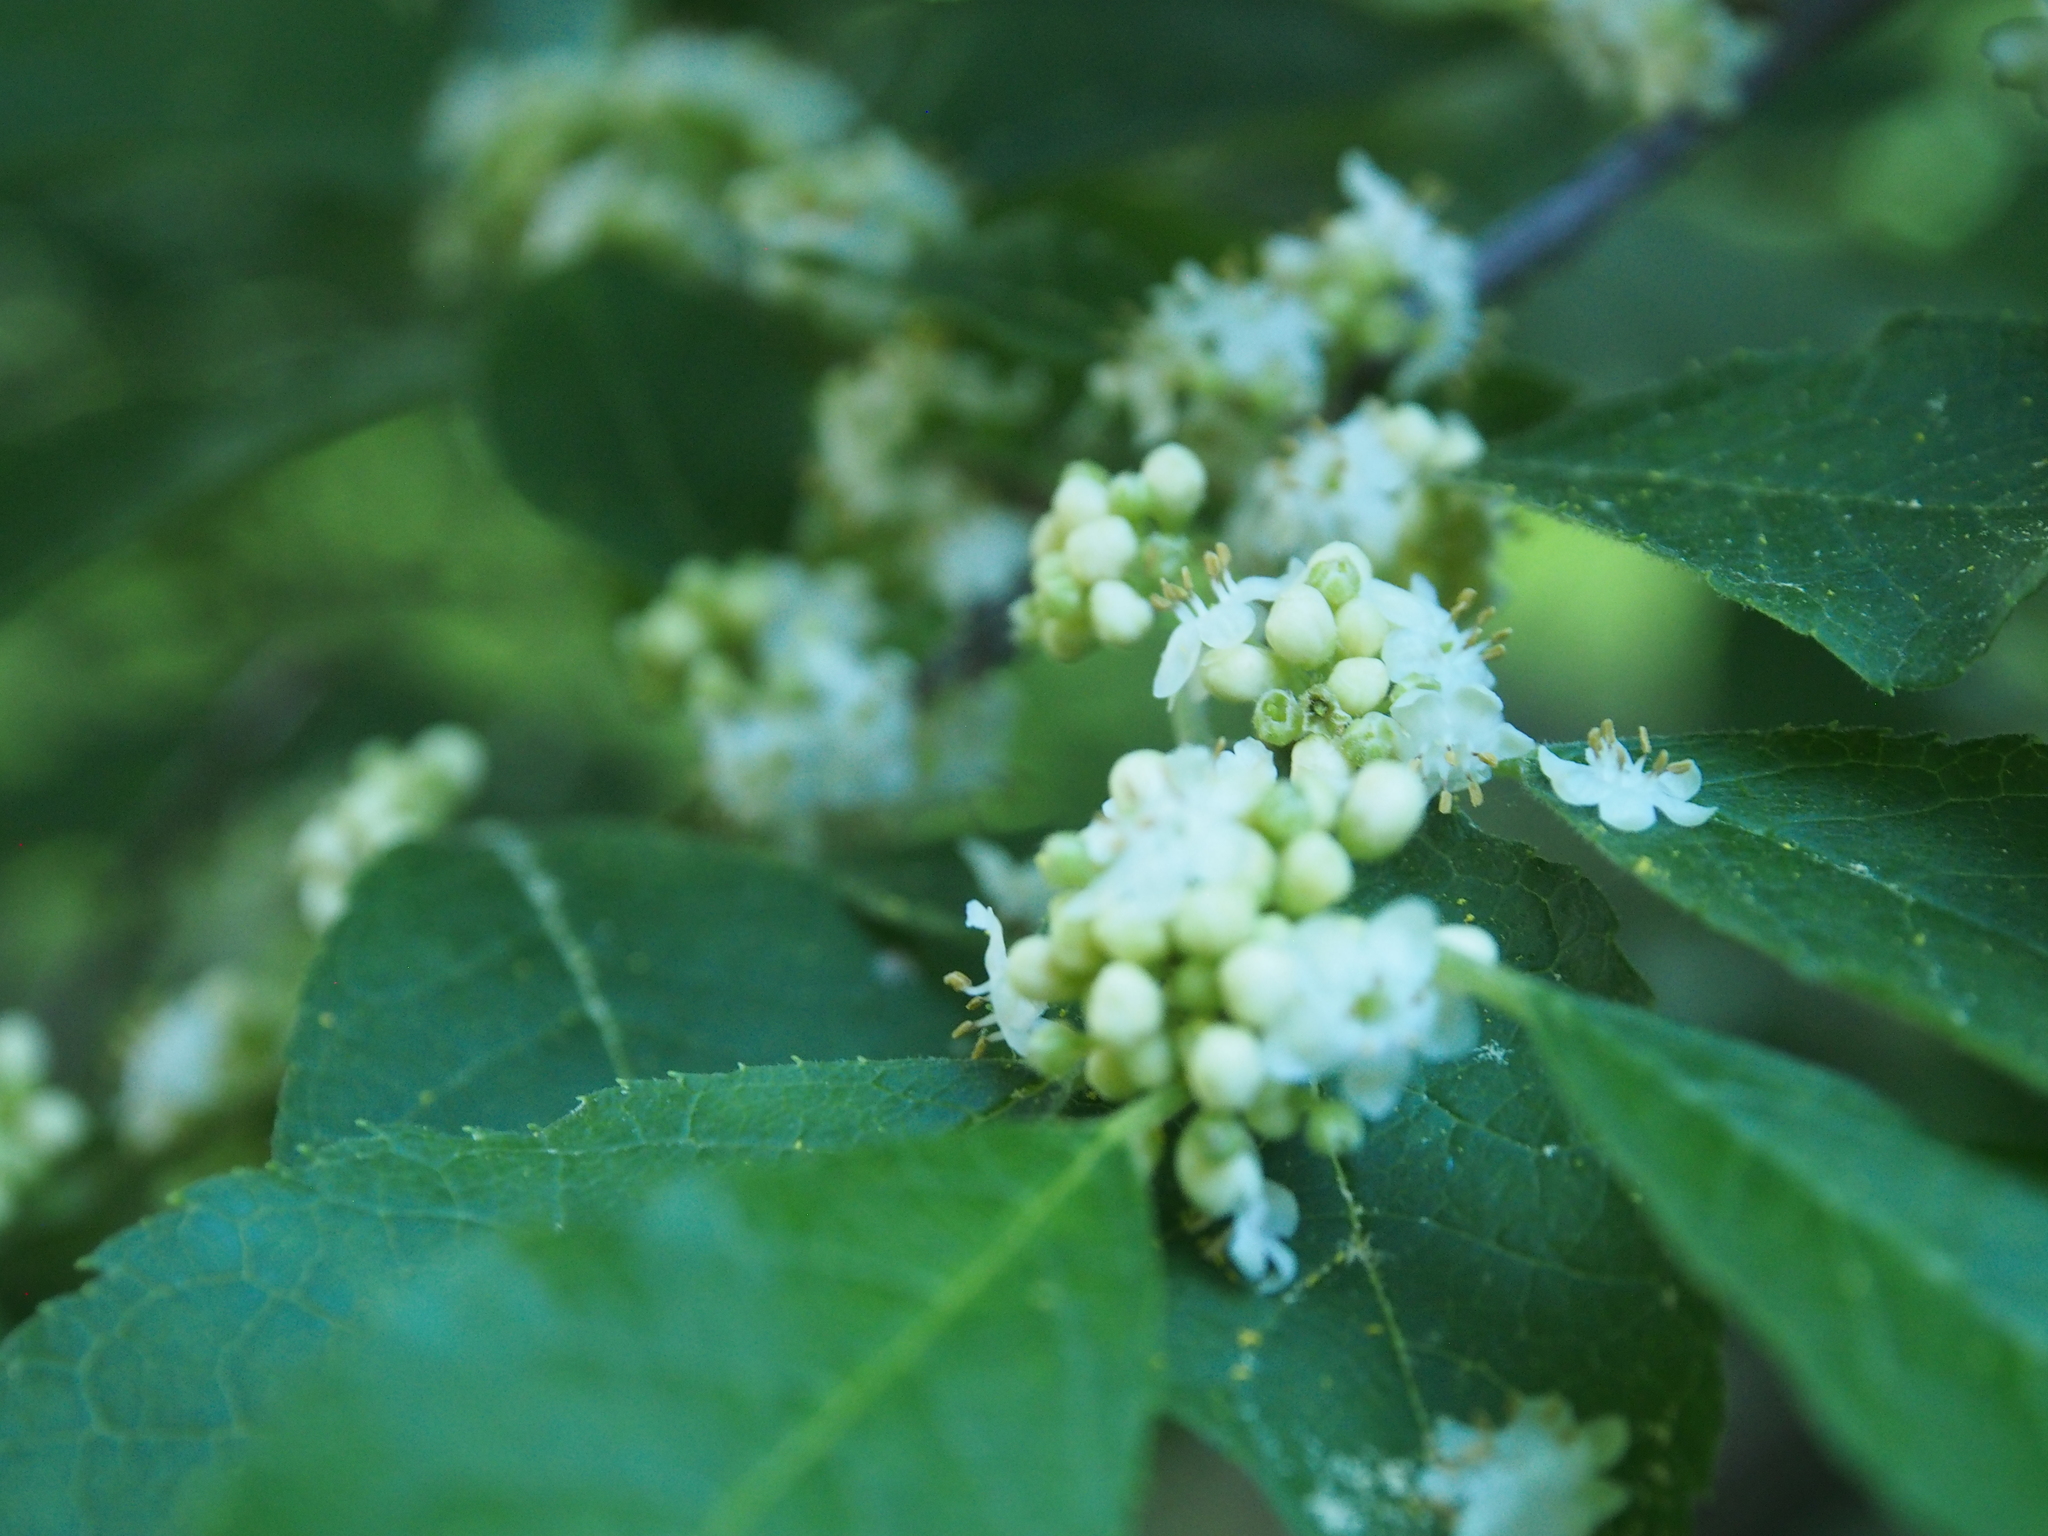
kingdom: Plantae
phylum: Tracheophyta
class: Magnoliopsida
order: Aquifoliales
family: Aquifoliaceae
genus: Ilex
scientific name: Ilex verticillata
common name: Virginia winterberry
